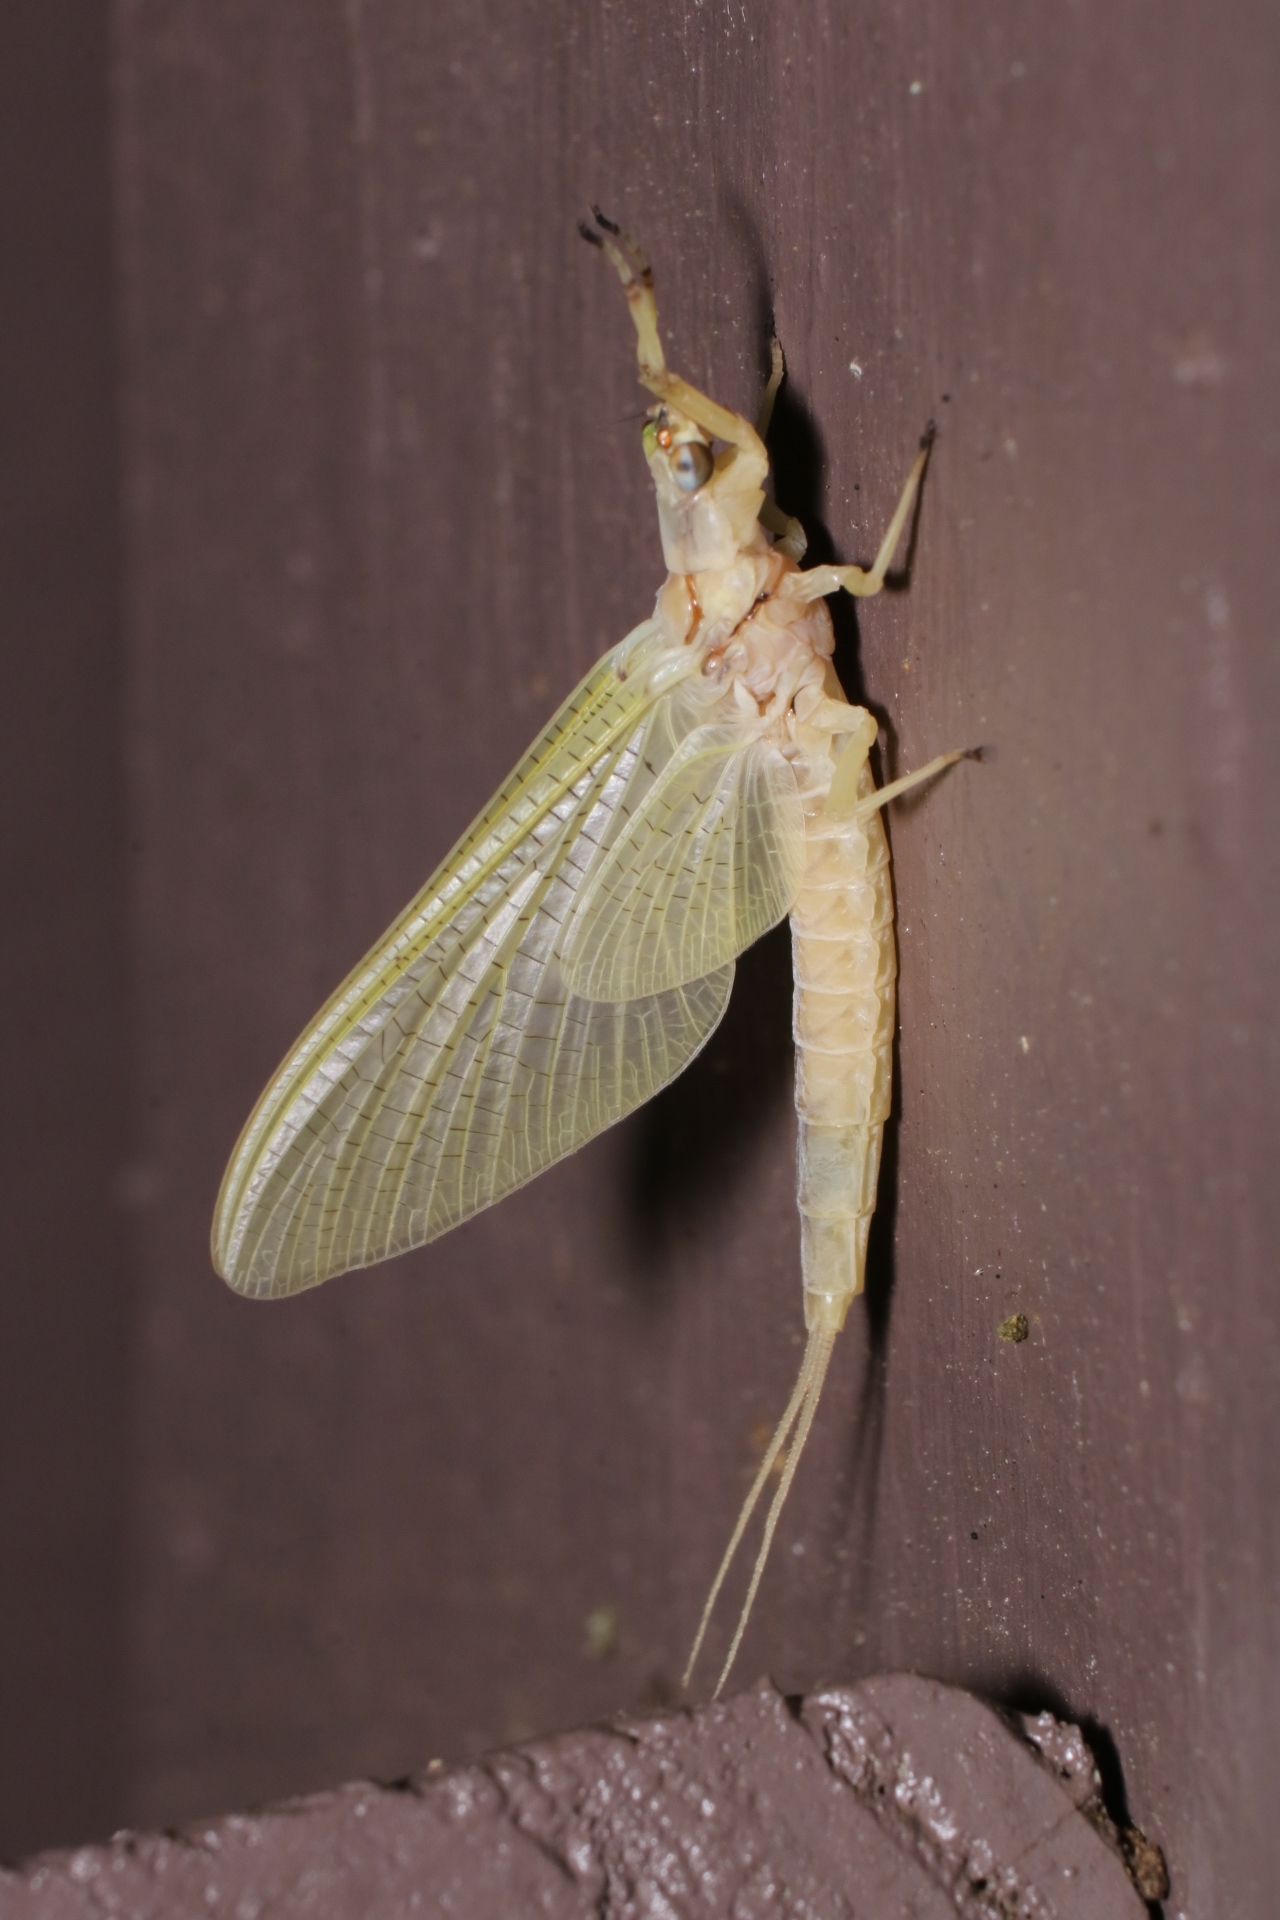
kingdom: Animalia
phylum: Arthropoda
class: Insecta
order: Ephemeroptera
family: Ephemeridae
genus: Hexagenia
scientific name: Hexagenia limbata
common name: Giant mayfly
